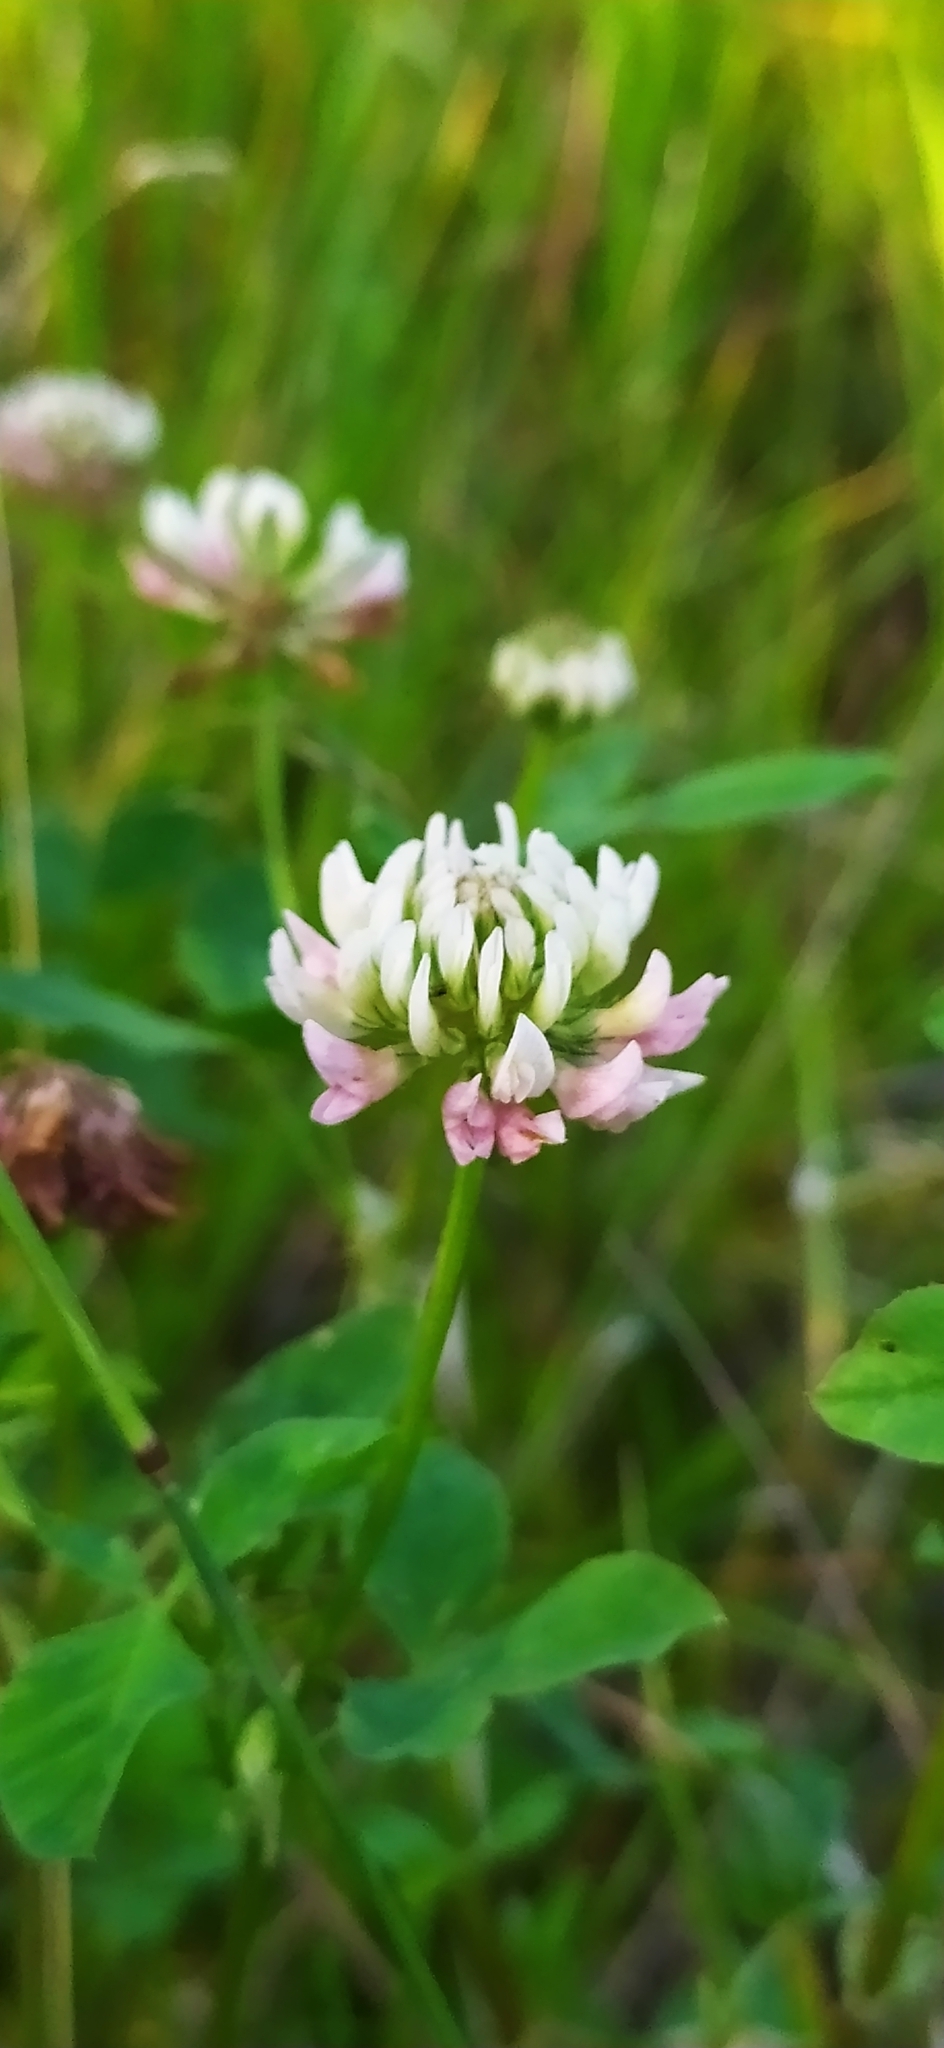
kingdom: Plantae
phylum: Tracheophyta
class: Magnoliopsida
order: Fabales
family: Fabaceae
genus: Trifolium
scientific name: Trifolium hybridum
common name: Alsike clover
